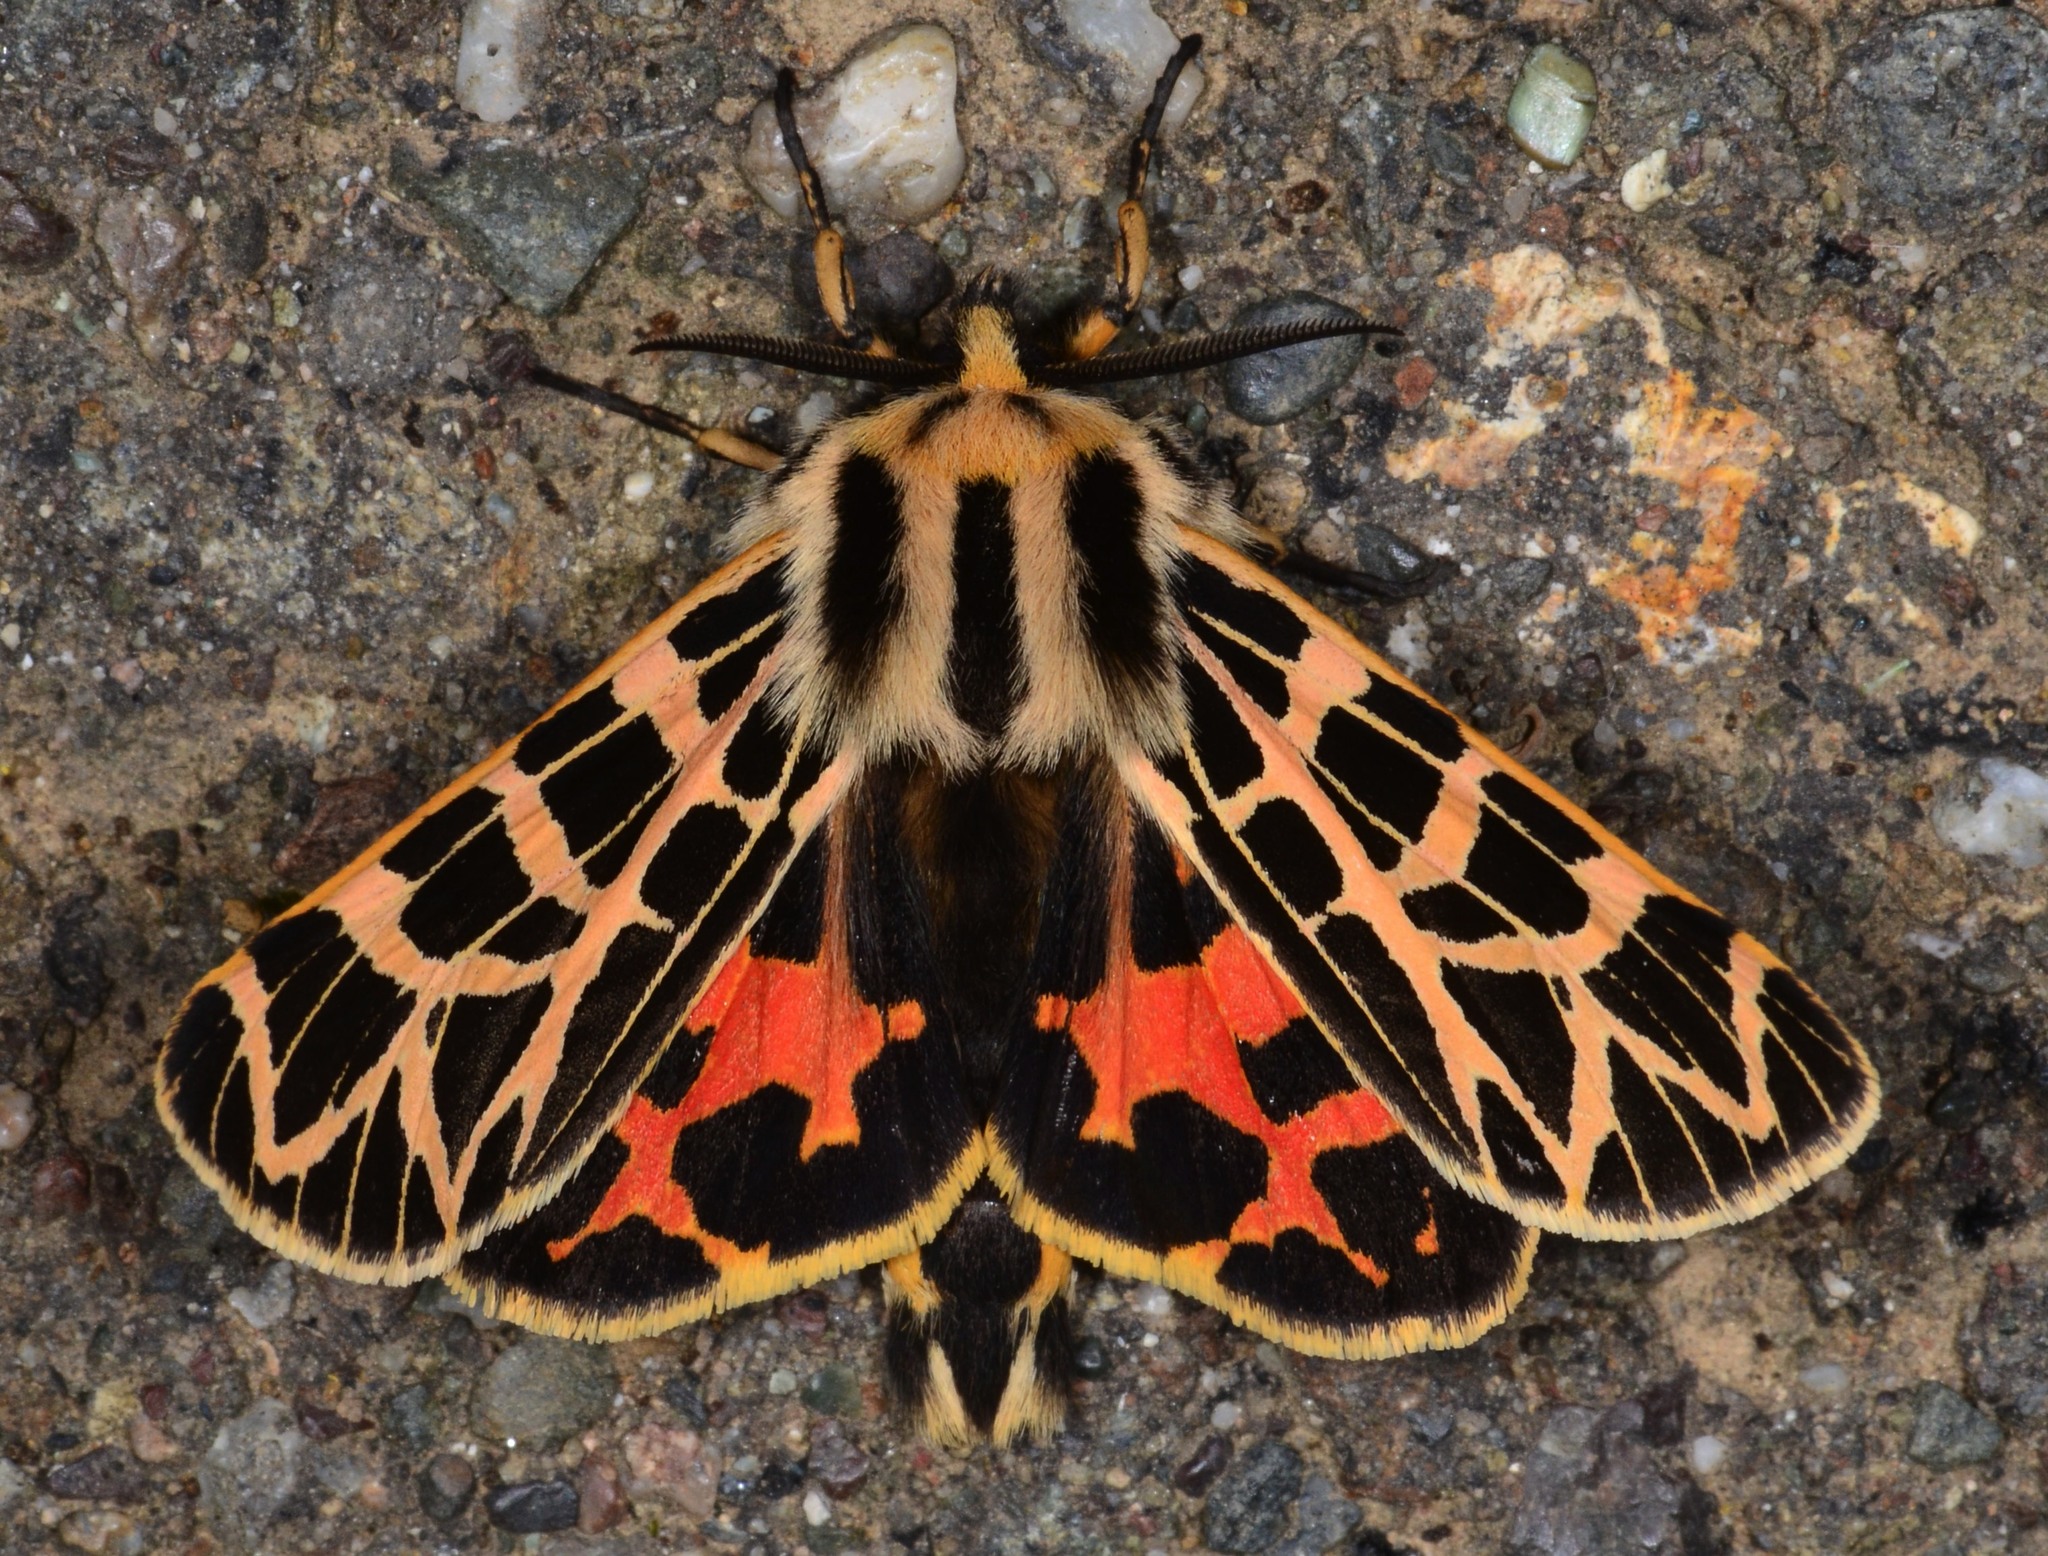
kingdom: Animalia
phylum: Arthropoda
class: Insecta
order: Lepidoptera
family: Erebidae
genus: Apantesis
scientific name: Apantesis
